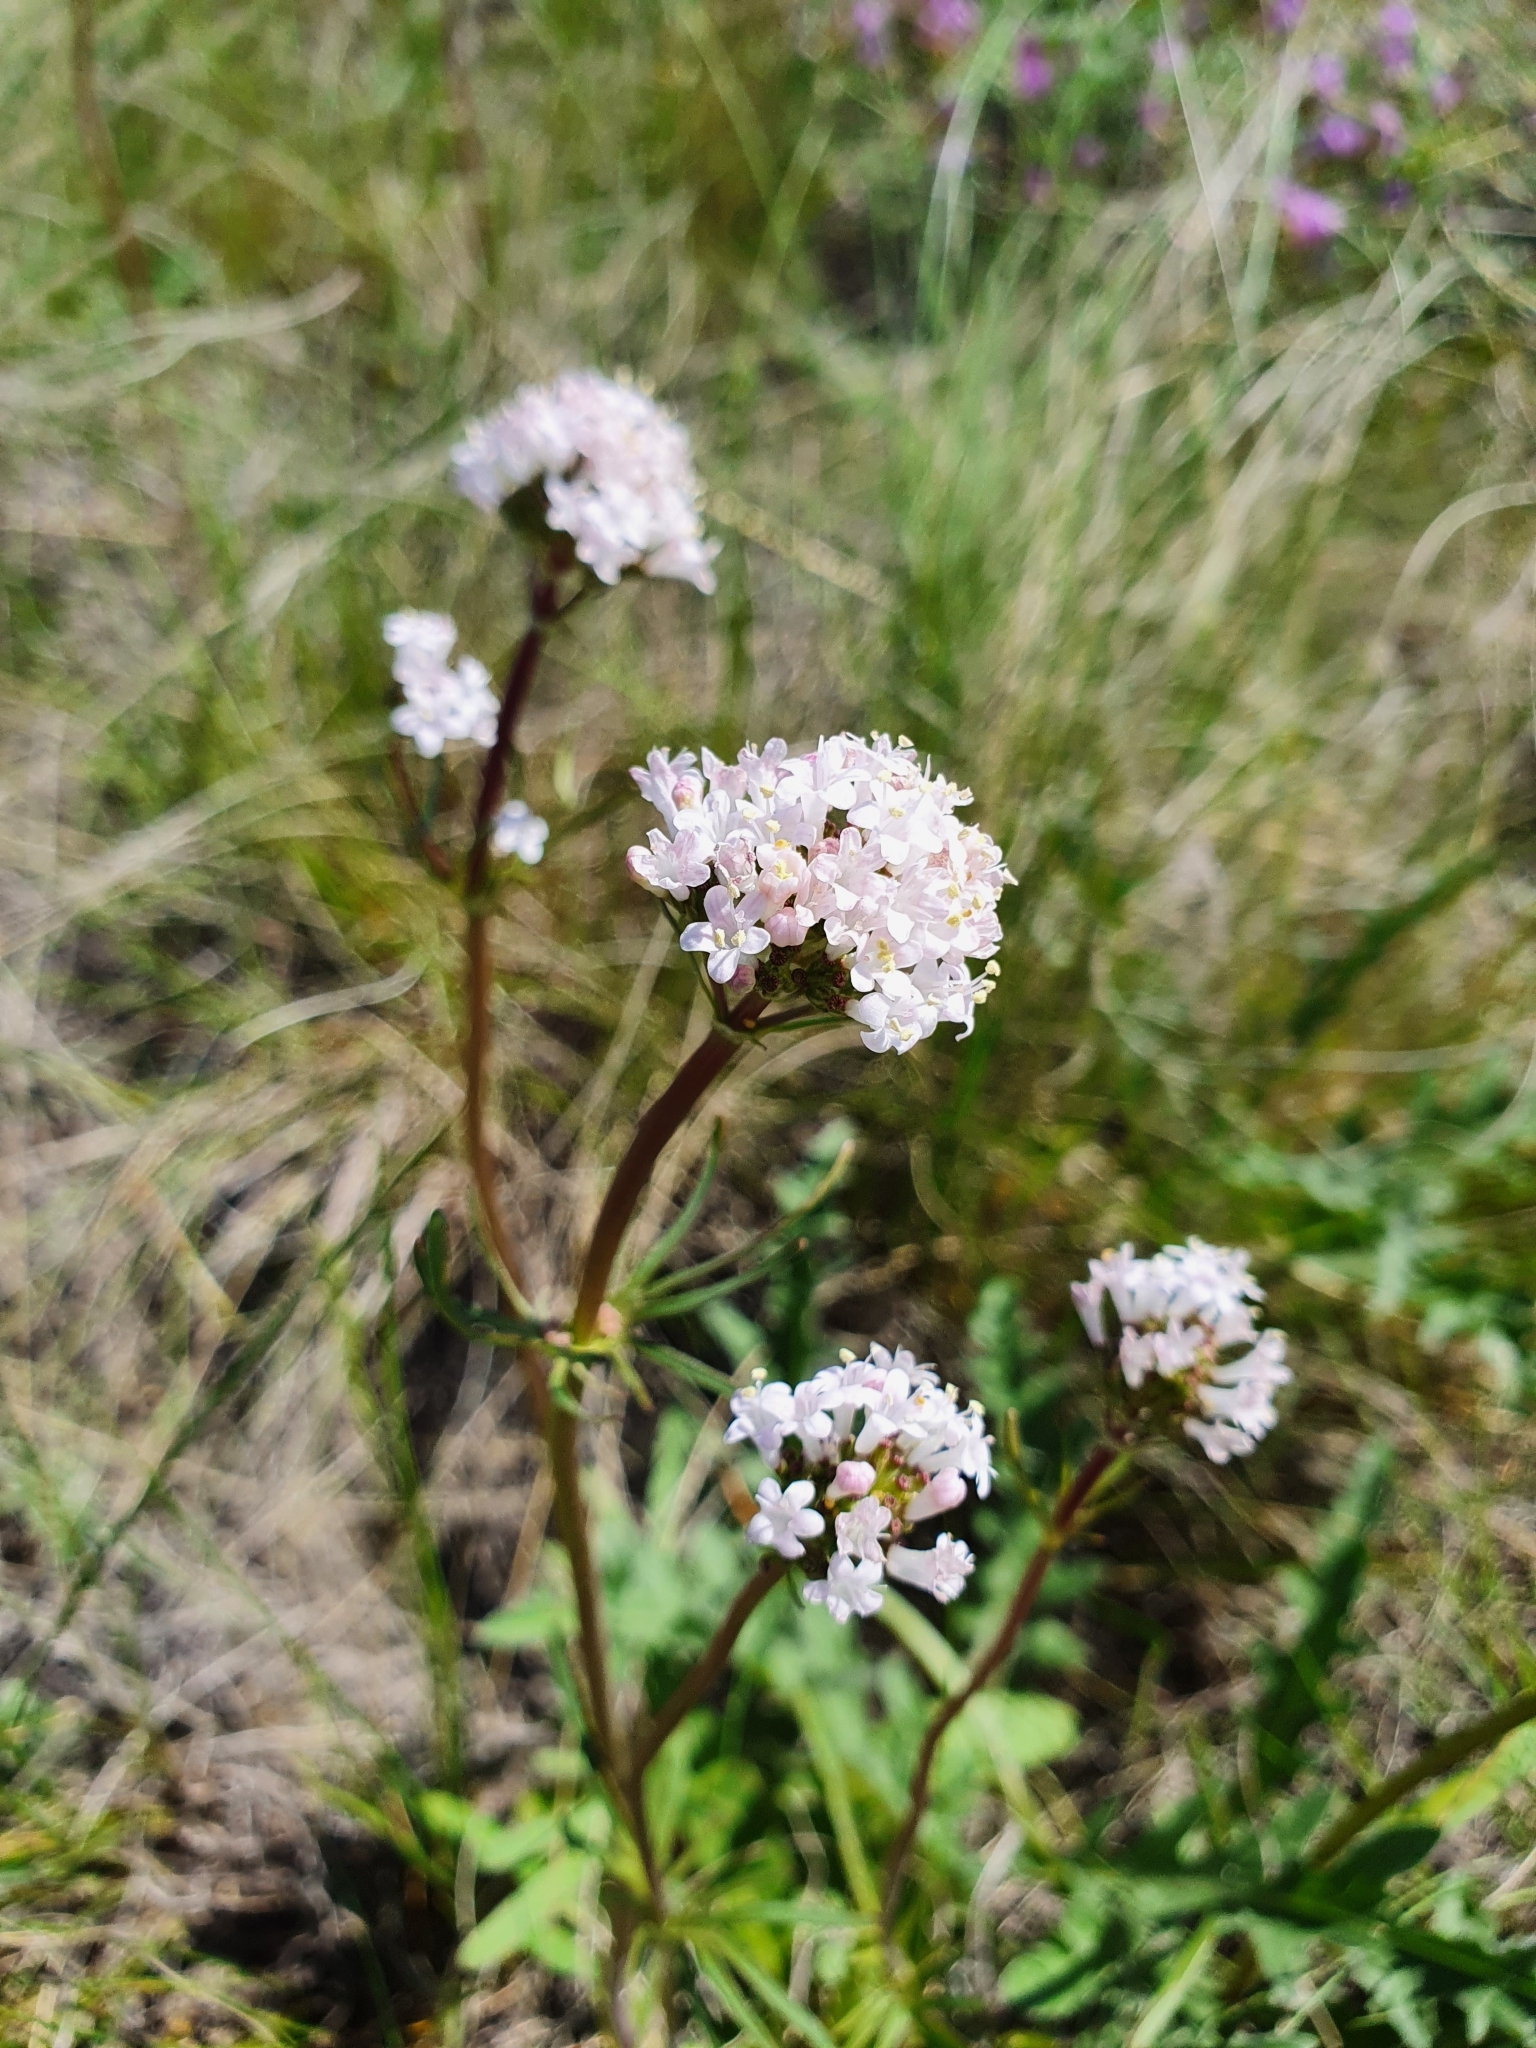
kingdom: Plantae
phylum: Tracheophyta
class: Magnoliopsida
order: Dipsacales
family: Caprifoliaceae
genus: Valeriana
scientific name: Valeriana tuberosa
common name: Tuberous valerian
